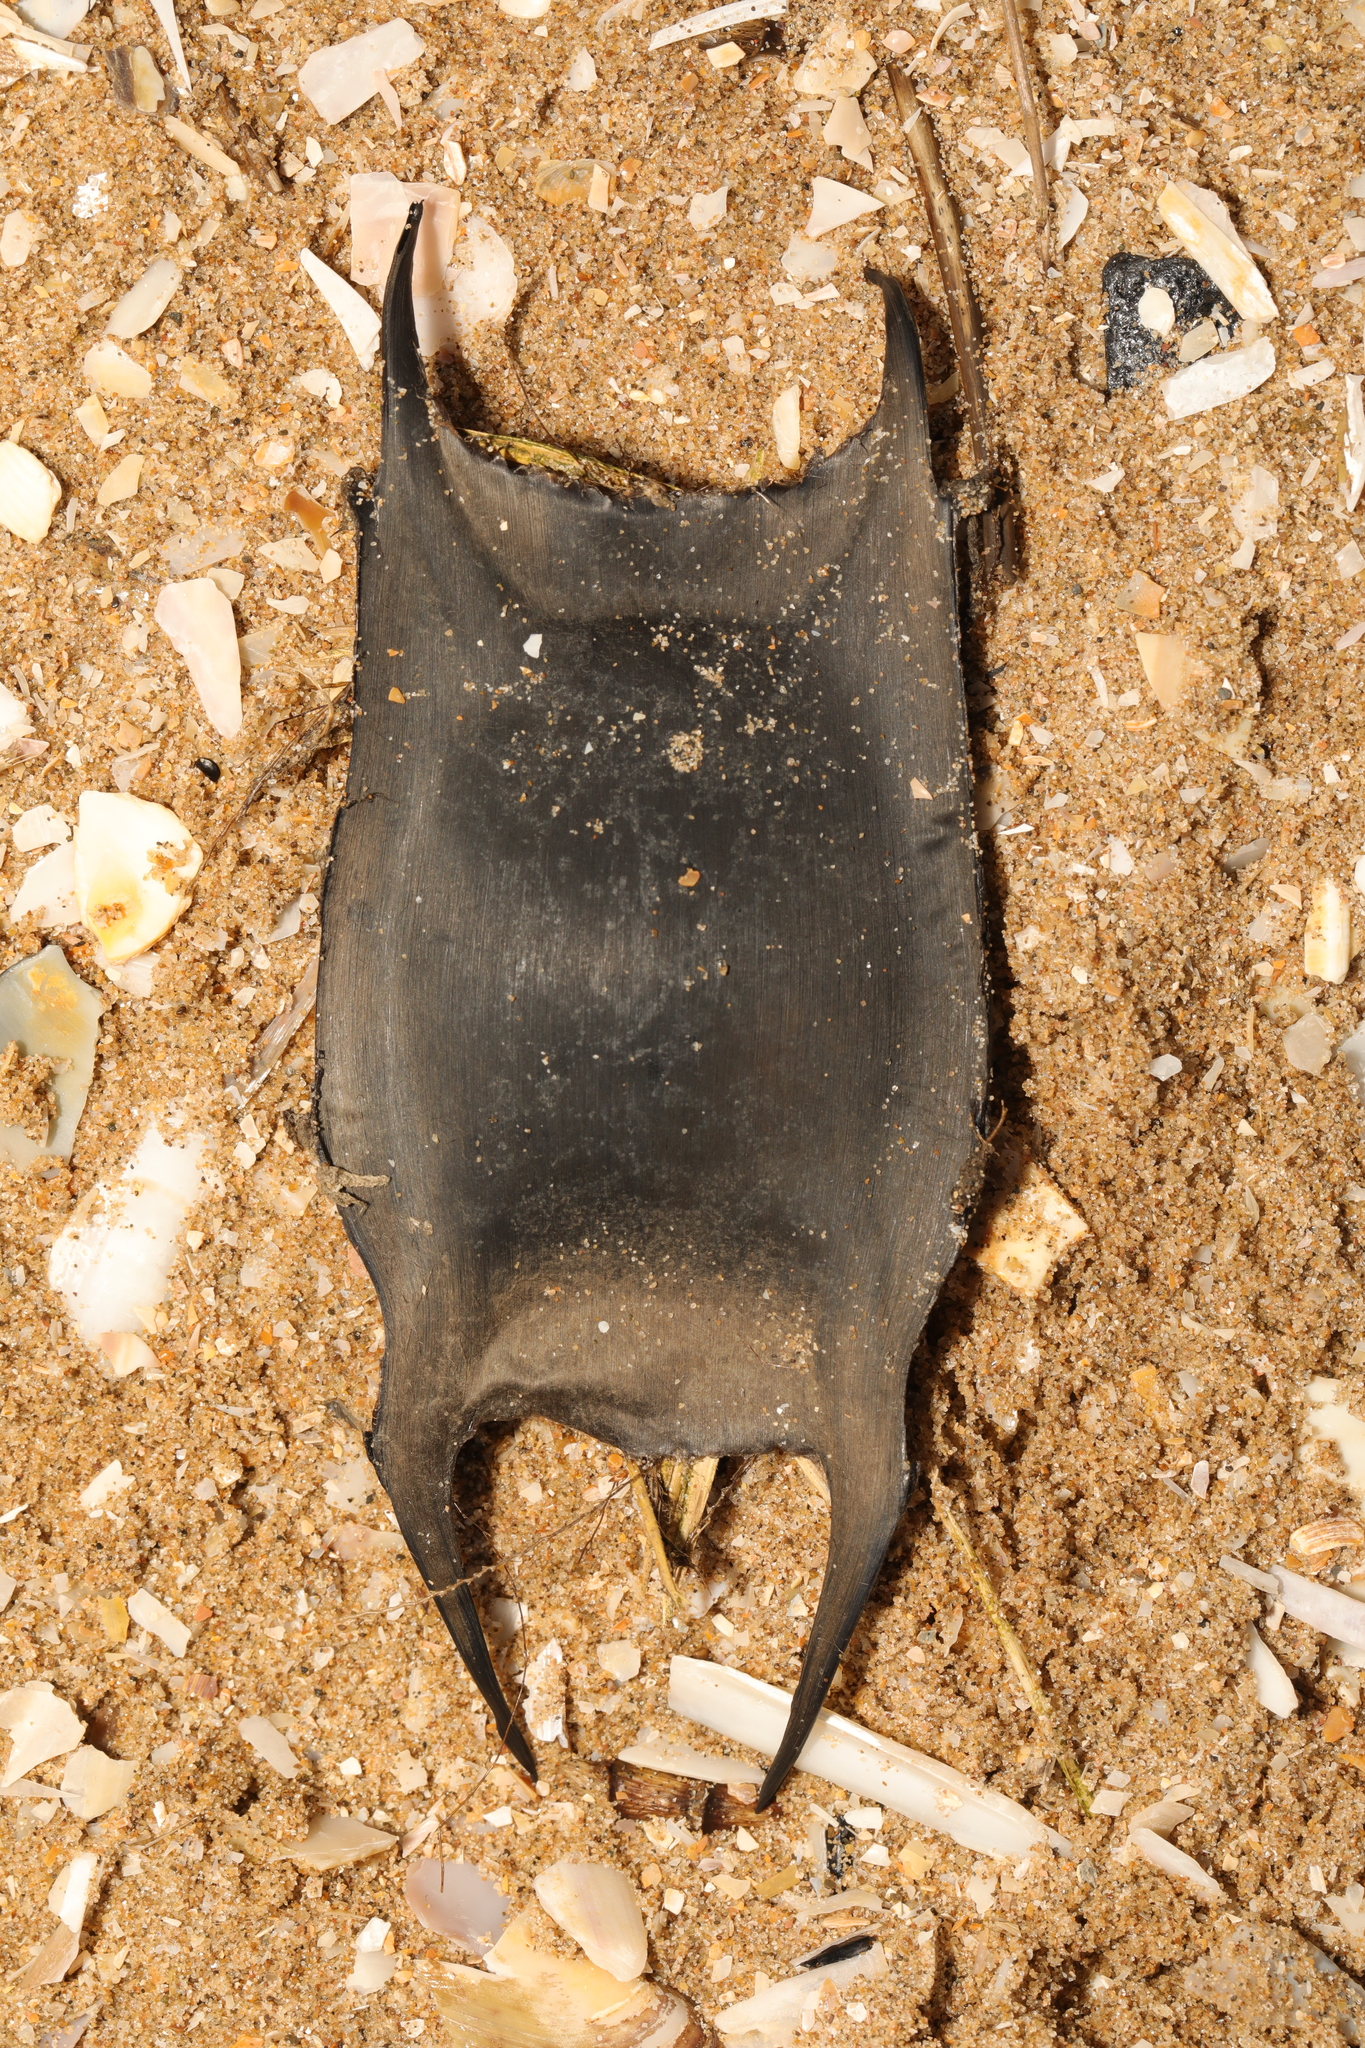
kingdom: Animalia
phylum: Chordata
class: Elasmobranchii
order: Rajiformes
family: Rajidae
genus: Raja
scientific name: Raja clavata
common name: Thornback ray
